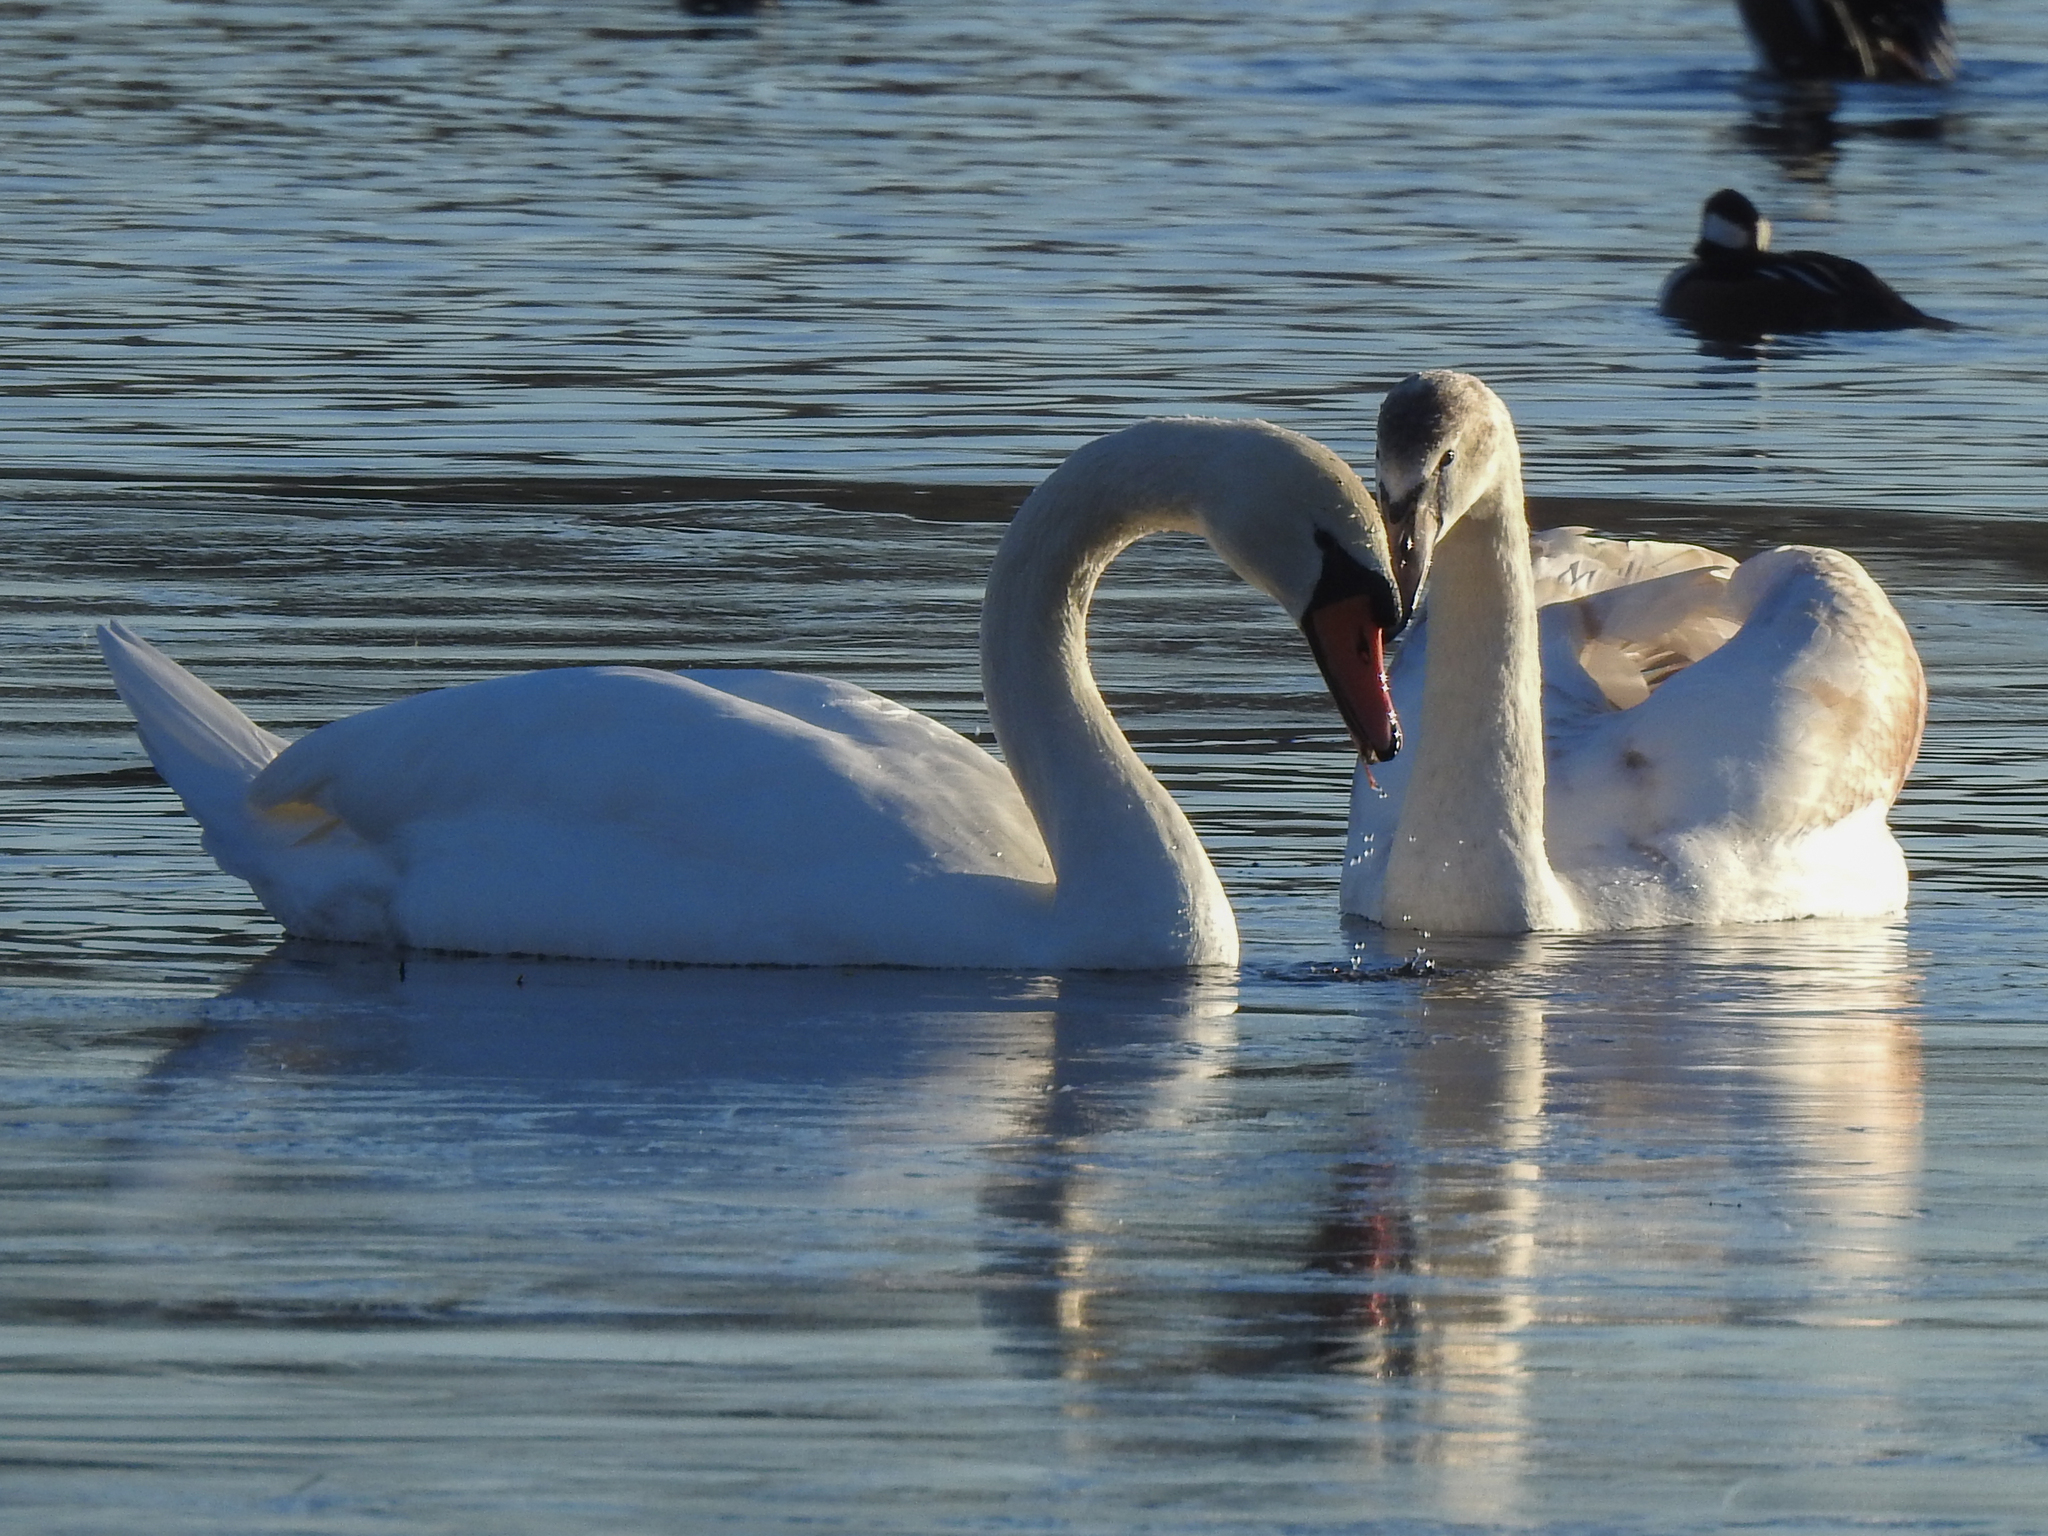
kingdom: Animalia
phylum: Chordata
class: Aves
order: Anseriformes
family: Anatidae
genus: Cygnus
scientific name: Cygnus olor
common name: Mute swan
